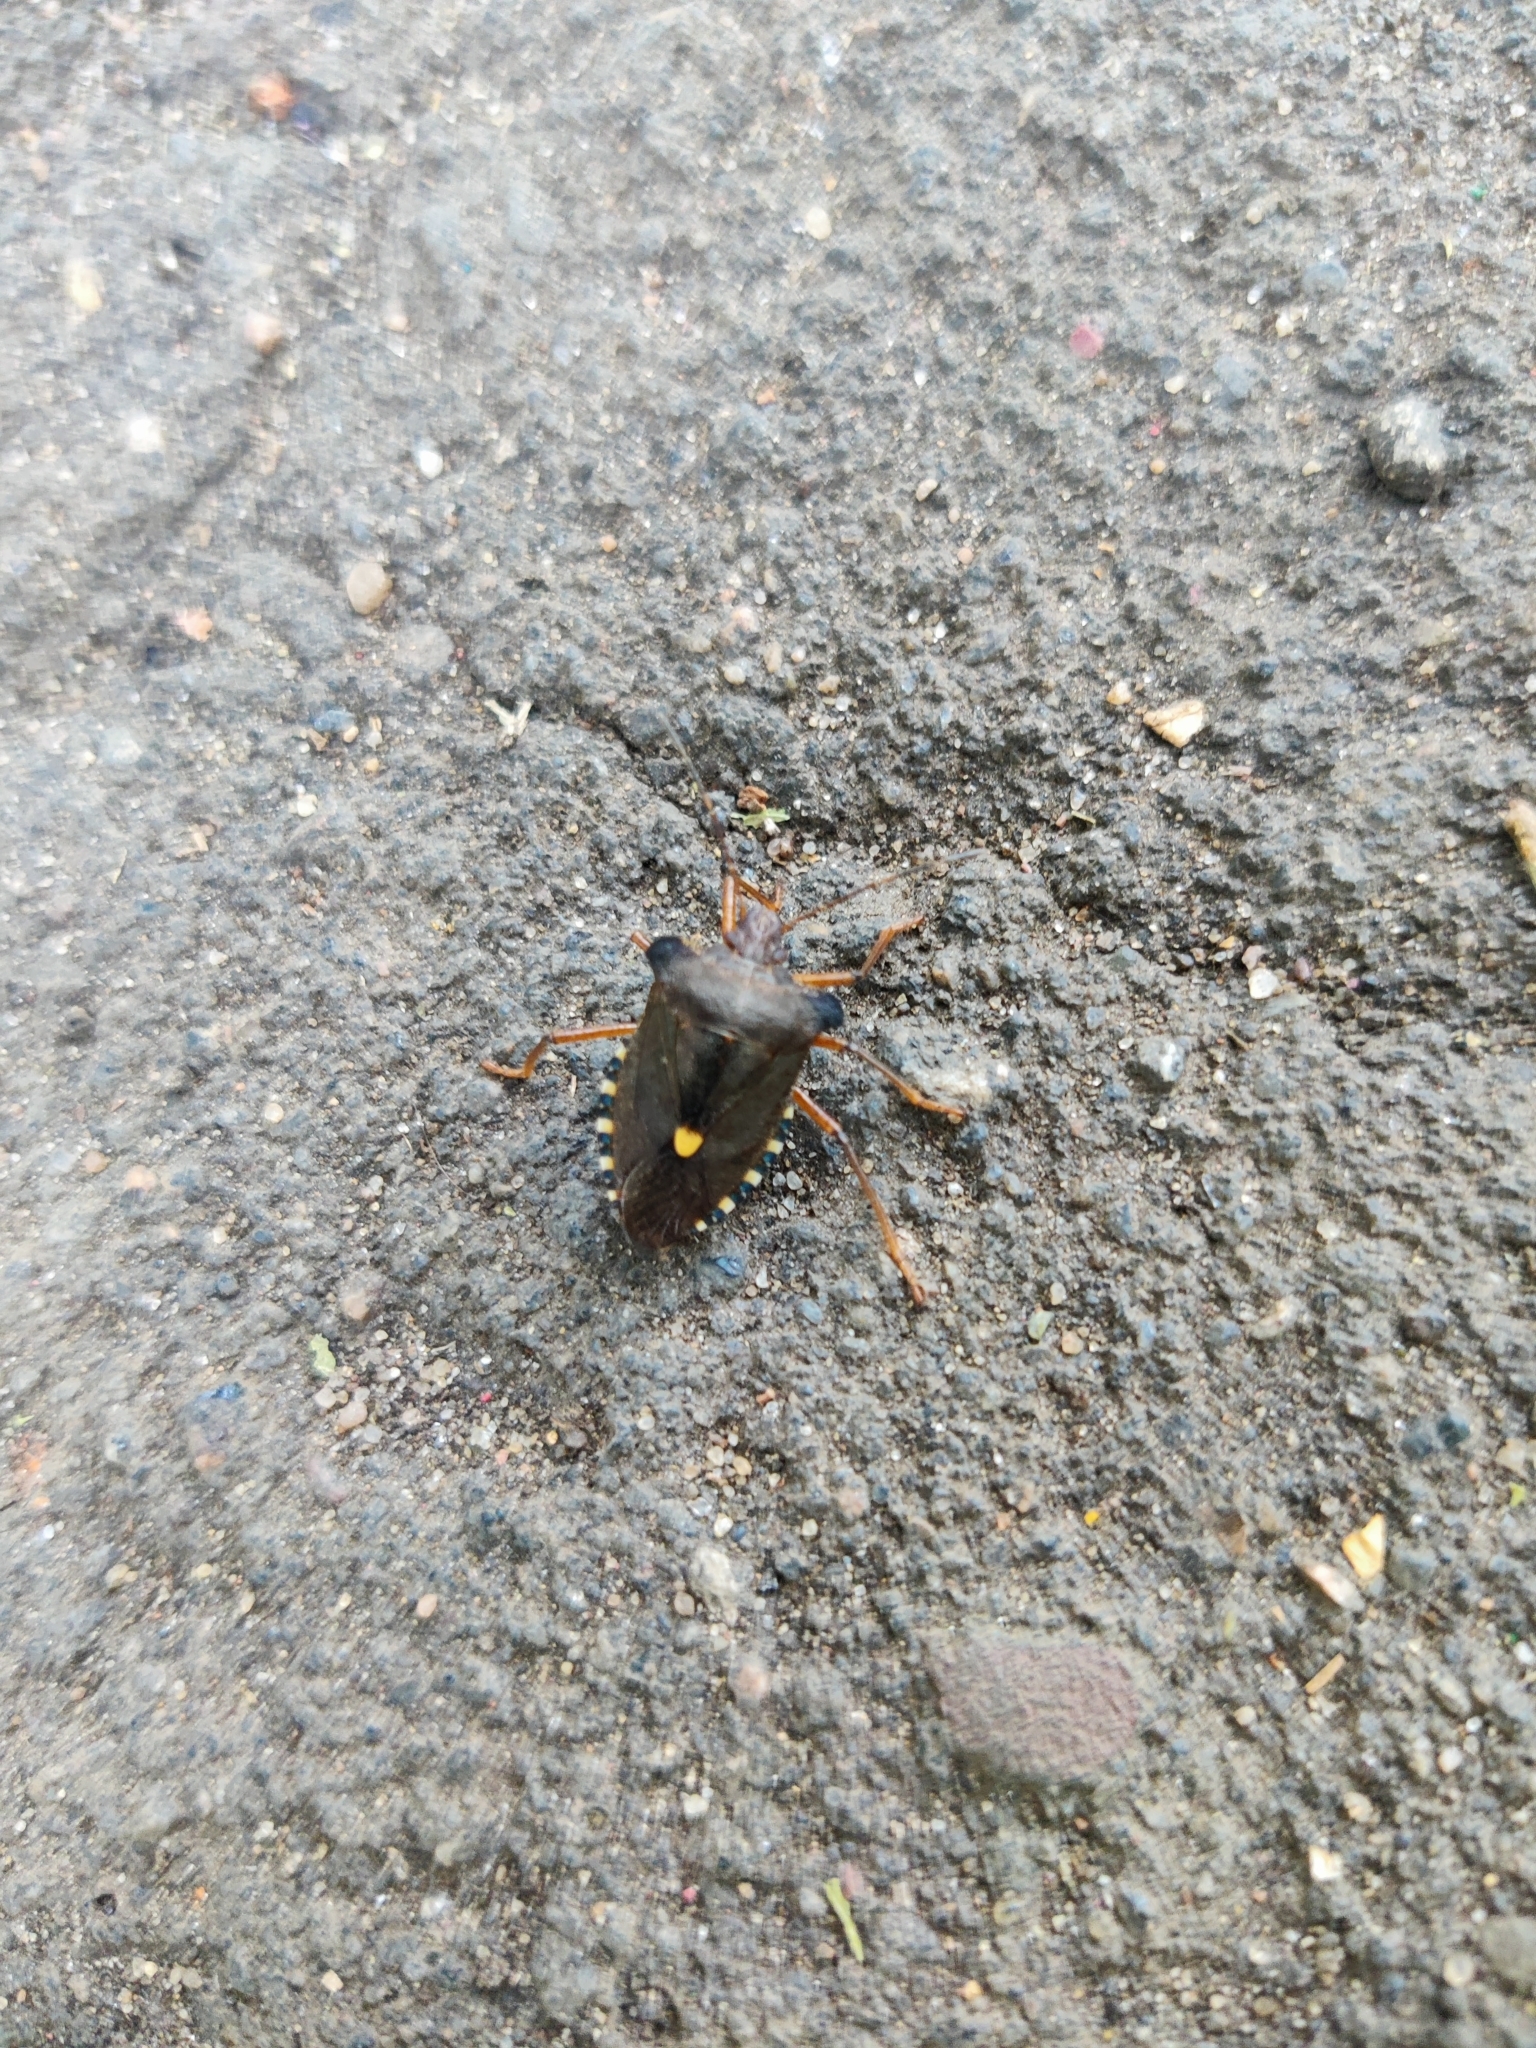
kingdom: Animalia
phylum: Arthropoda
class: Insecta
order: Hemiptera
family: Pentatomidae
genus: Pentatoma
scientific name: Pentatoma rufipes
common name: Forest bug
